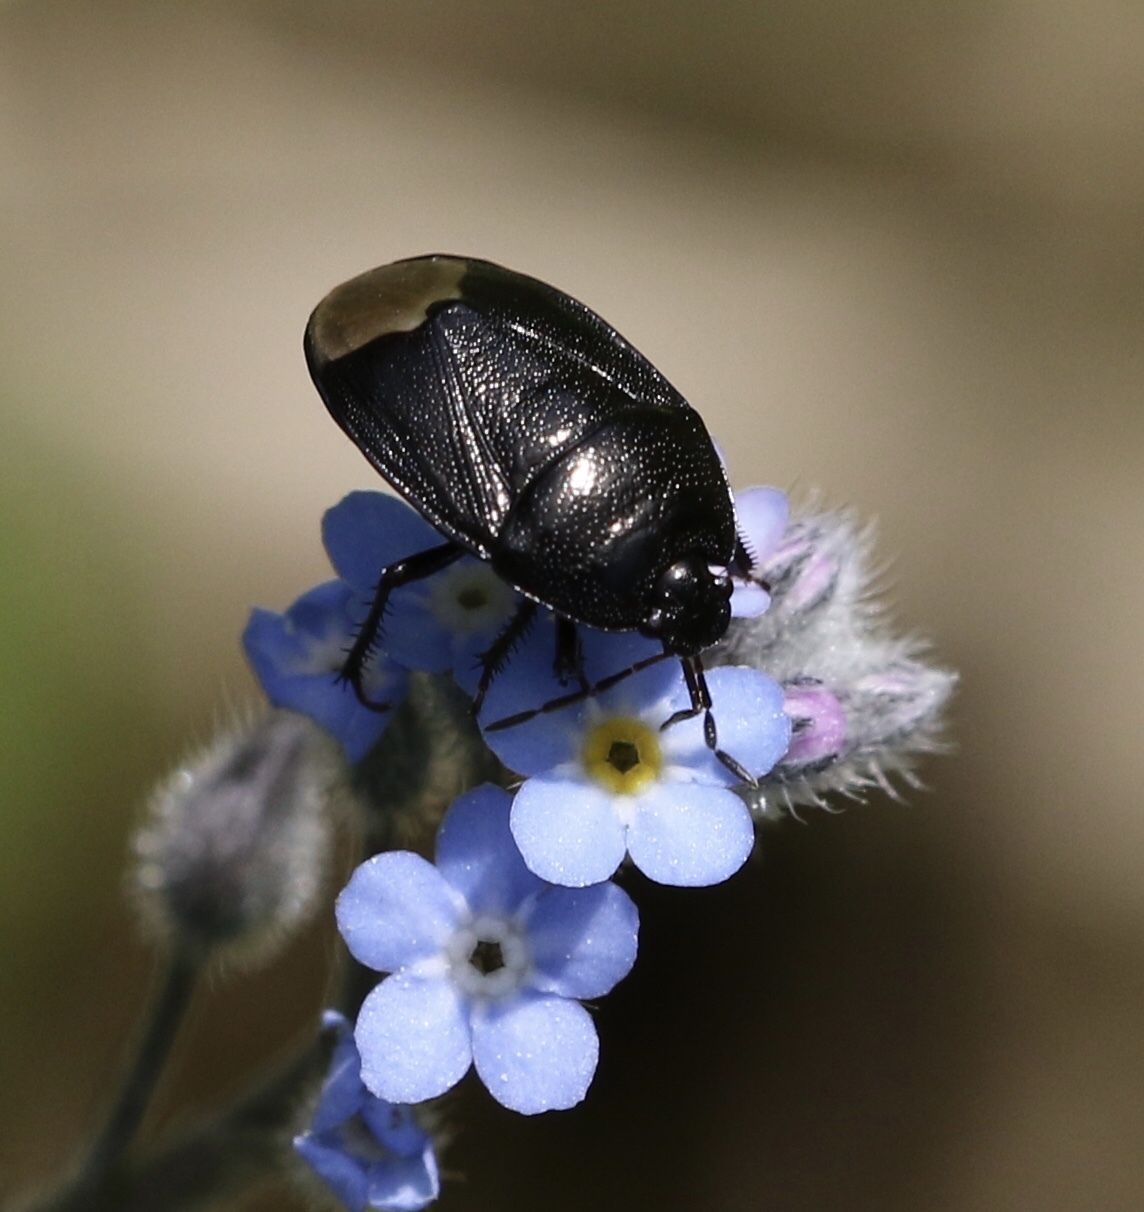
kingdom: Animalia
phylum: Arthropoda
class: Insecta
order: Hemiptera
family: Cydnidae
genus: Sehirus
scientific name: Sehirus luctuosus
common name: Forget-me-not shieldbug
